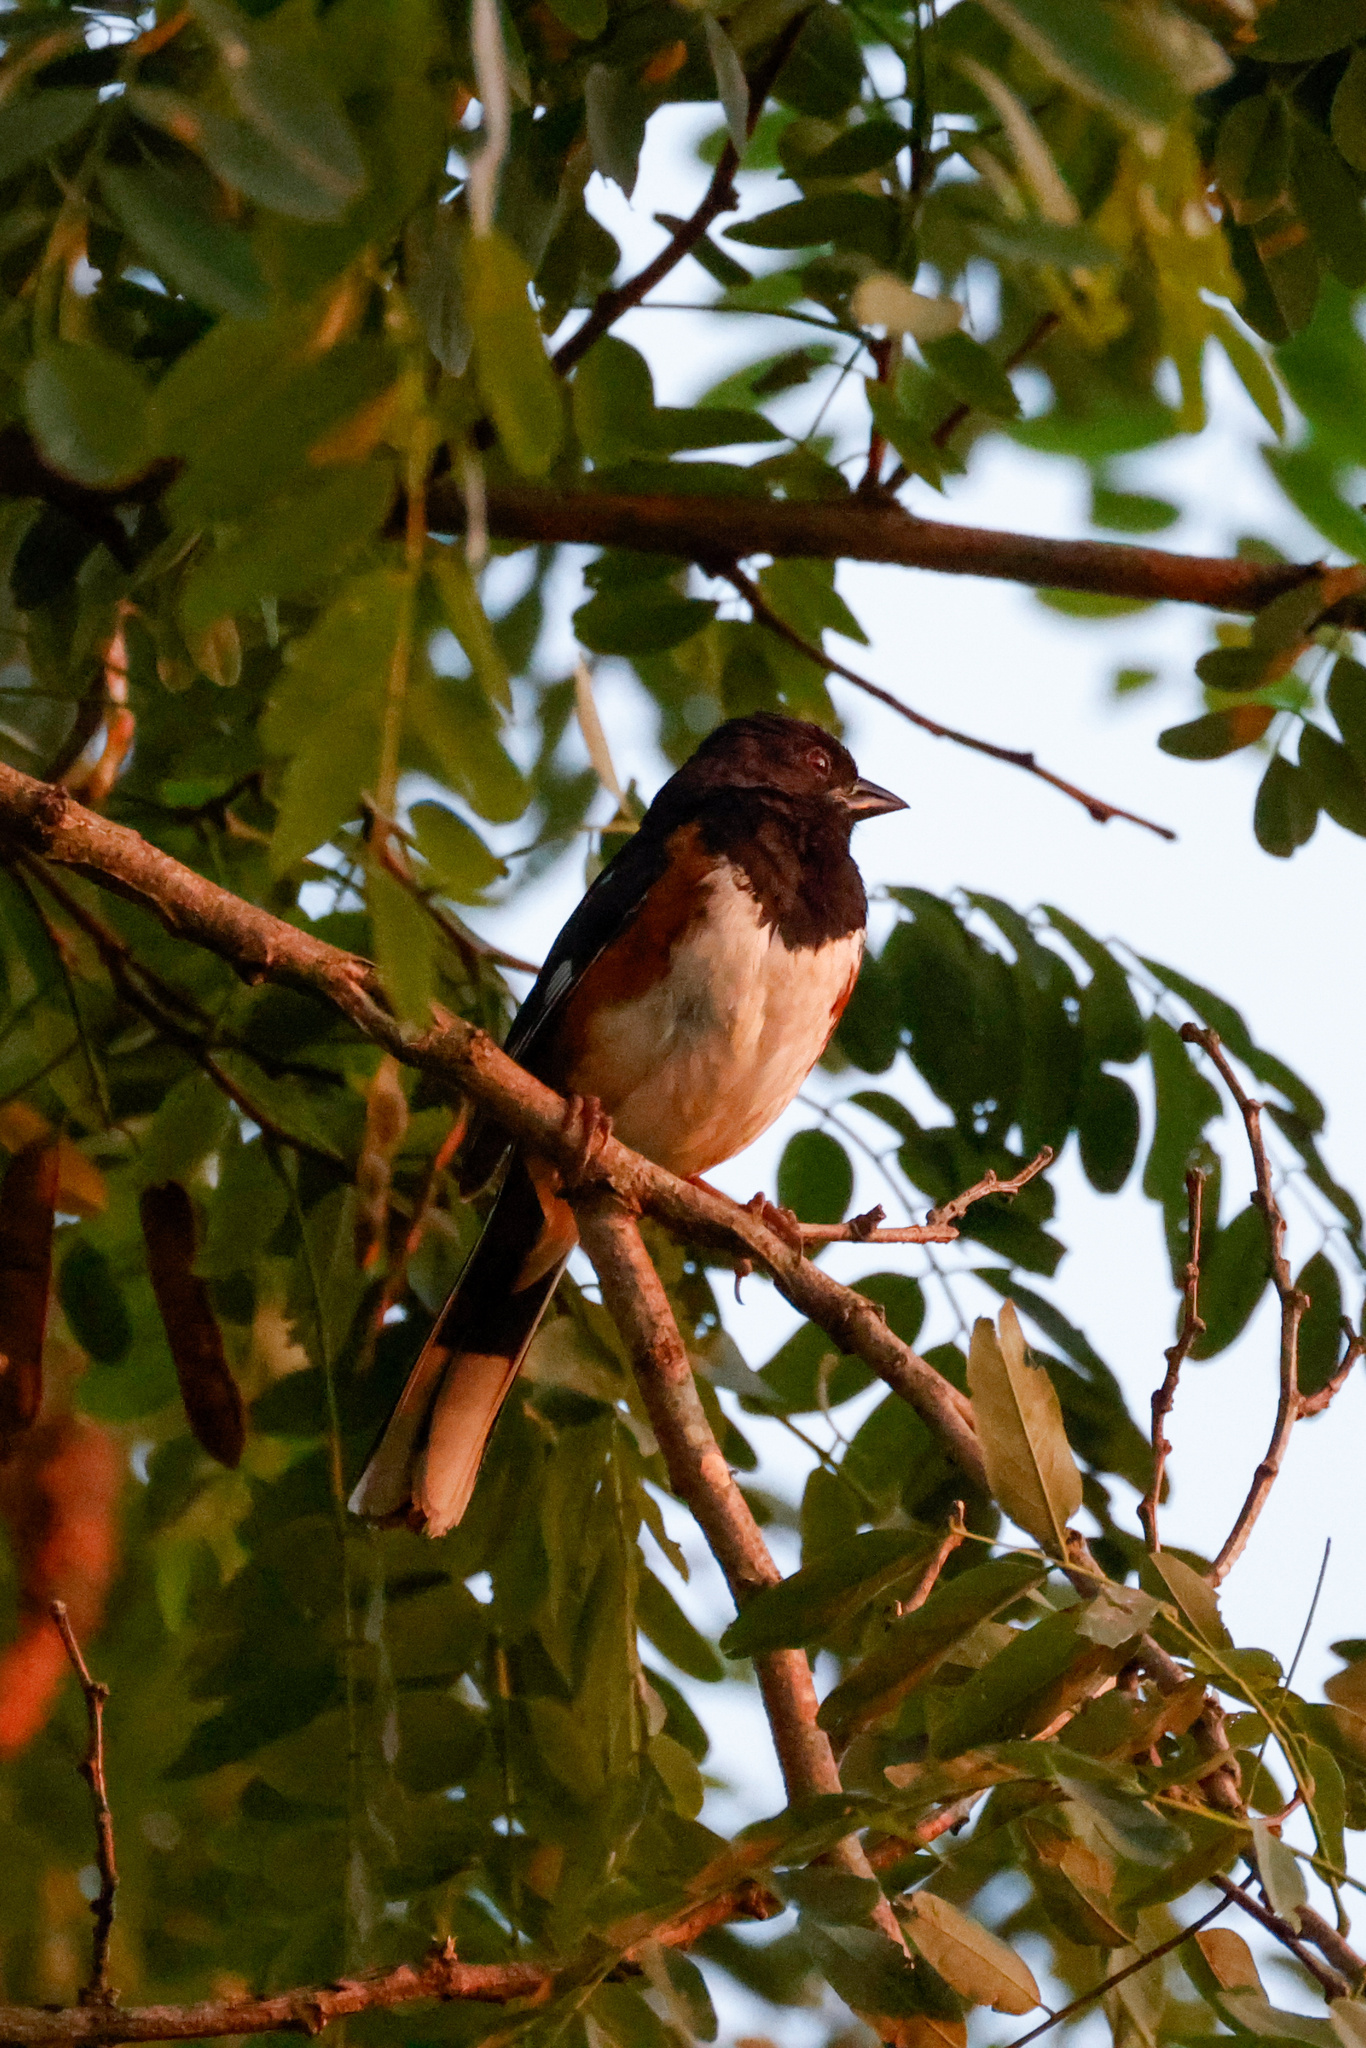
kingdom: Animalia
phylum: Chordata
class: Aves
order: Passeriformes
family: Passerellidae
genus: Pipilo
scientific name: Pipilo erythrophthalmus
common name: Eastern towhee
